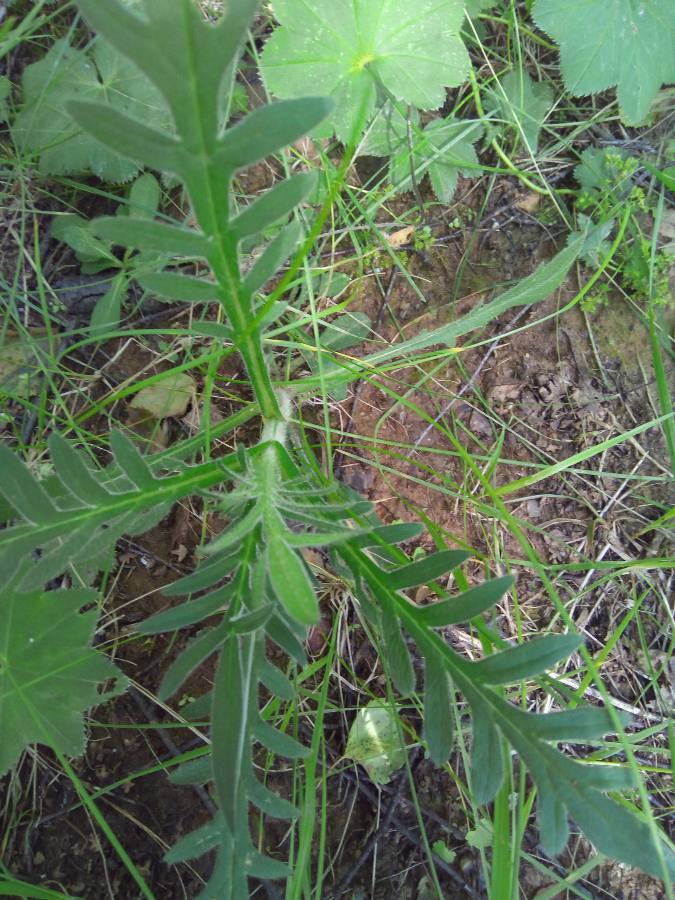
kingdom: Plantae
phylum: Tracheophyta
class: Magnoliopsida
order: Dipsacales
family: Caprifoliaceae
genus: Knautia
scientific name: Knautia arvensis
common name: Field scabiosa
